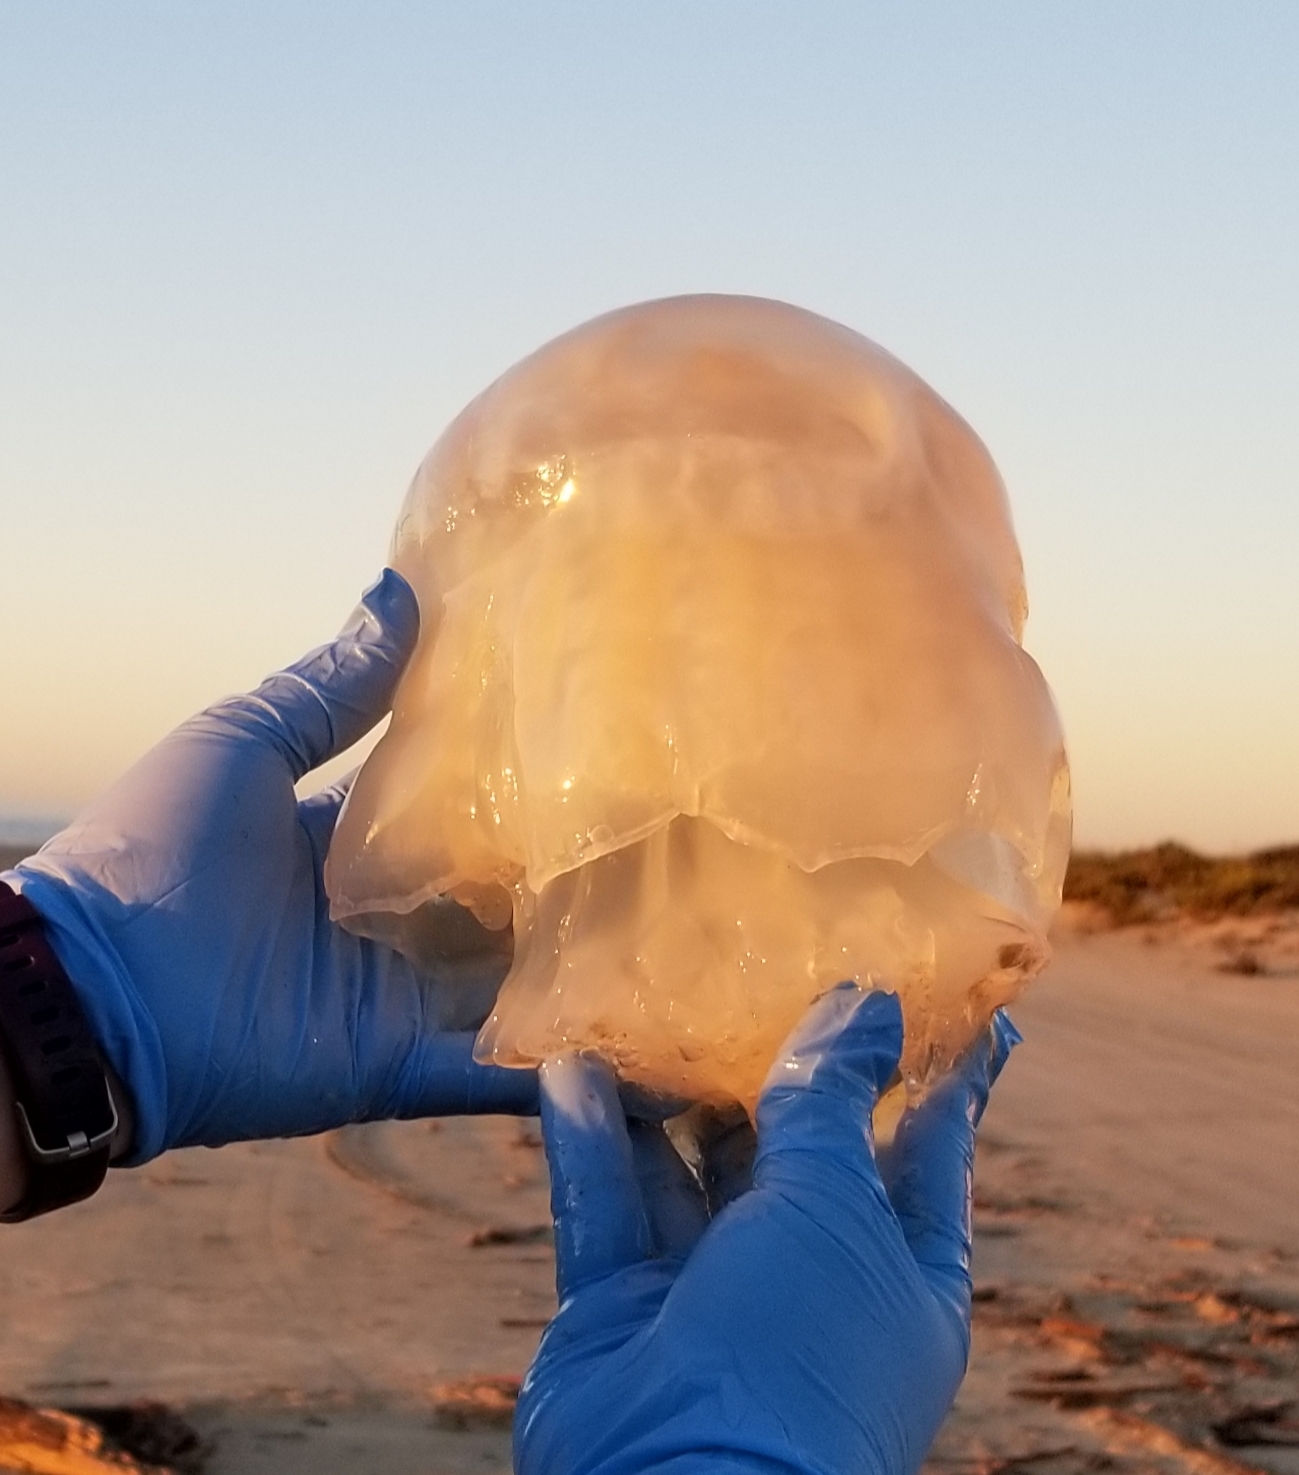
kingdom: Animalia
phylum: Cnidaria
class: Scyphozoa
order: Rhizostomeae
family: Stomolophidae
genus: Stomolophus
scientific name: Stomolophus meleagris
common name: Cabbagehead
